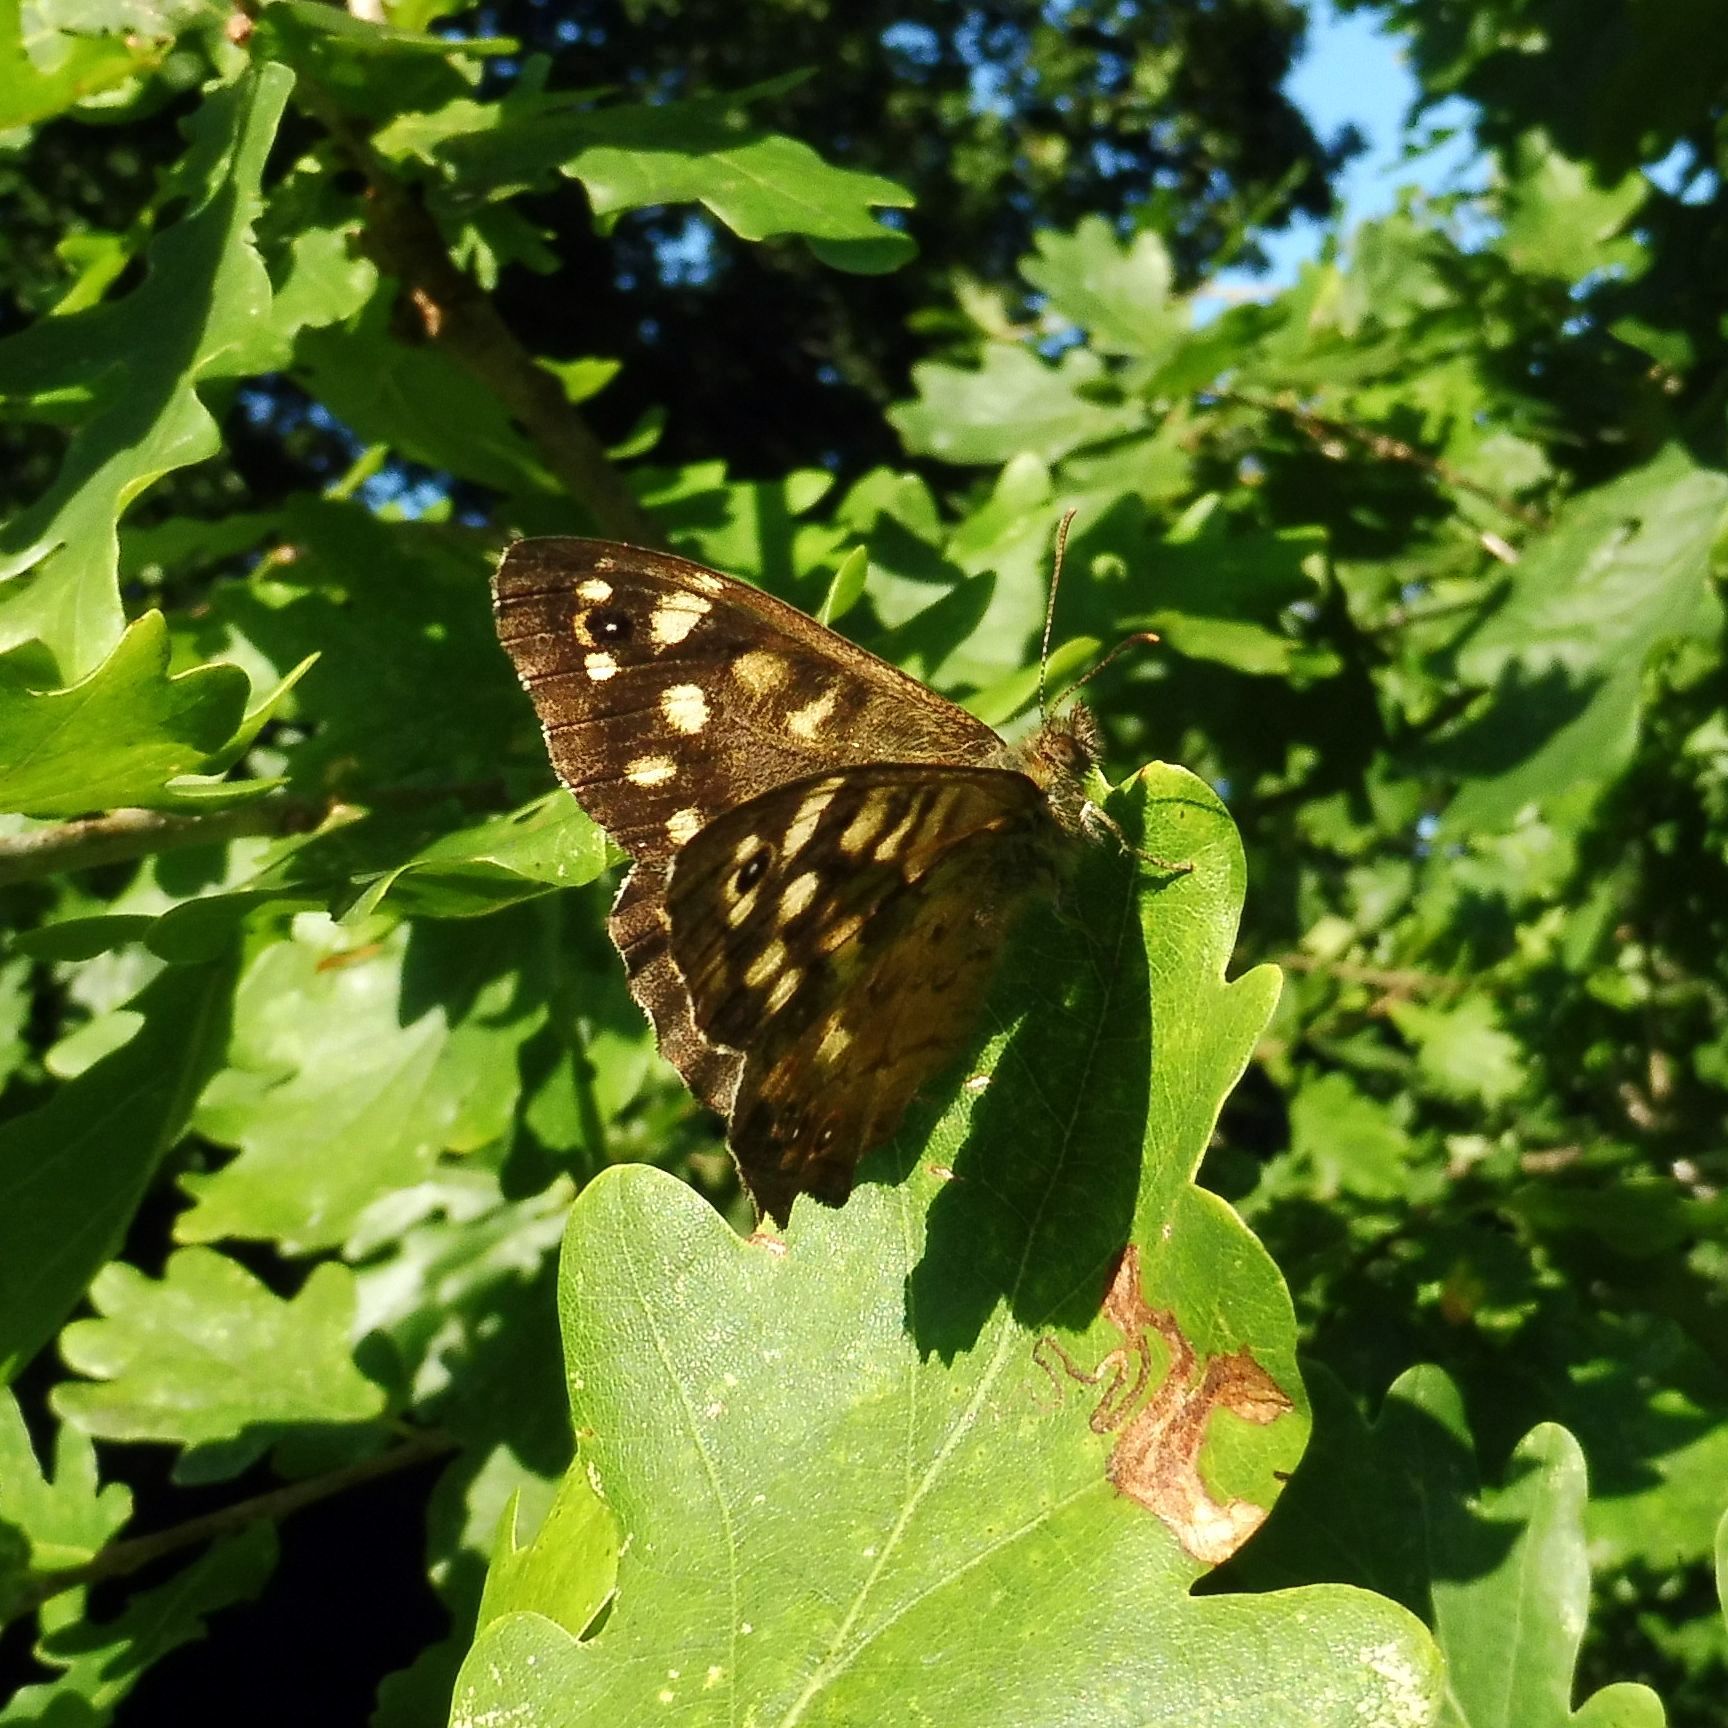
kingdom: Animalia
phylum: Arthropoda
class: Insecta
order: Lepidoptera
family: Nymphalidae
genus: Pararge
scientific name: Pararge aegeria
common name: Speckled wood
